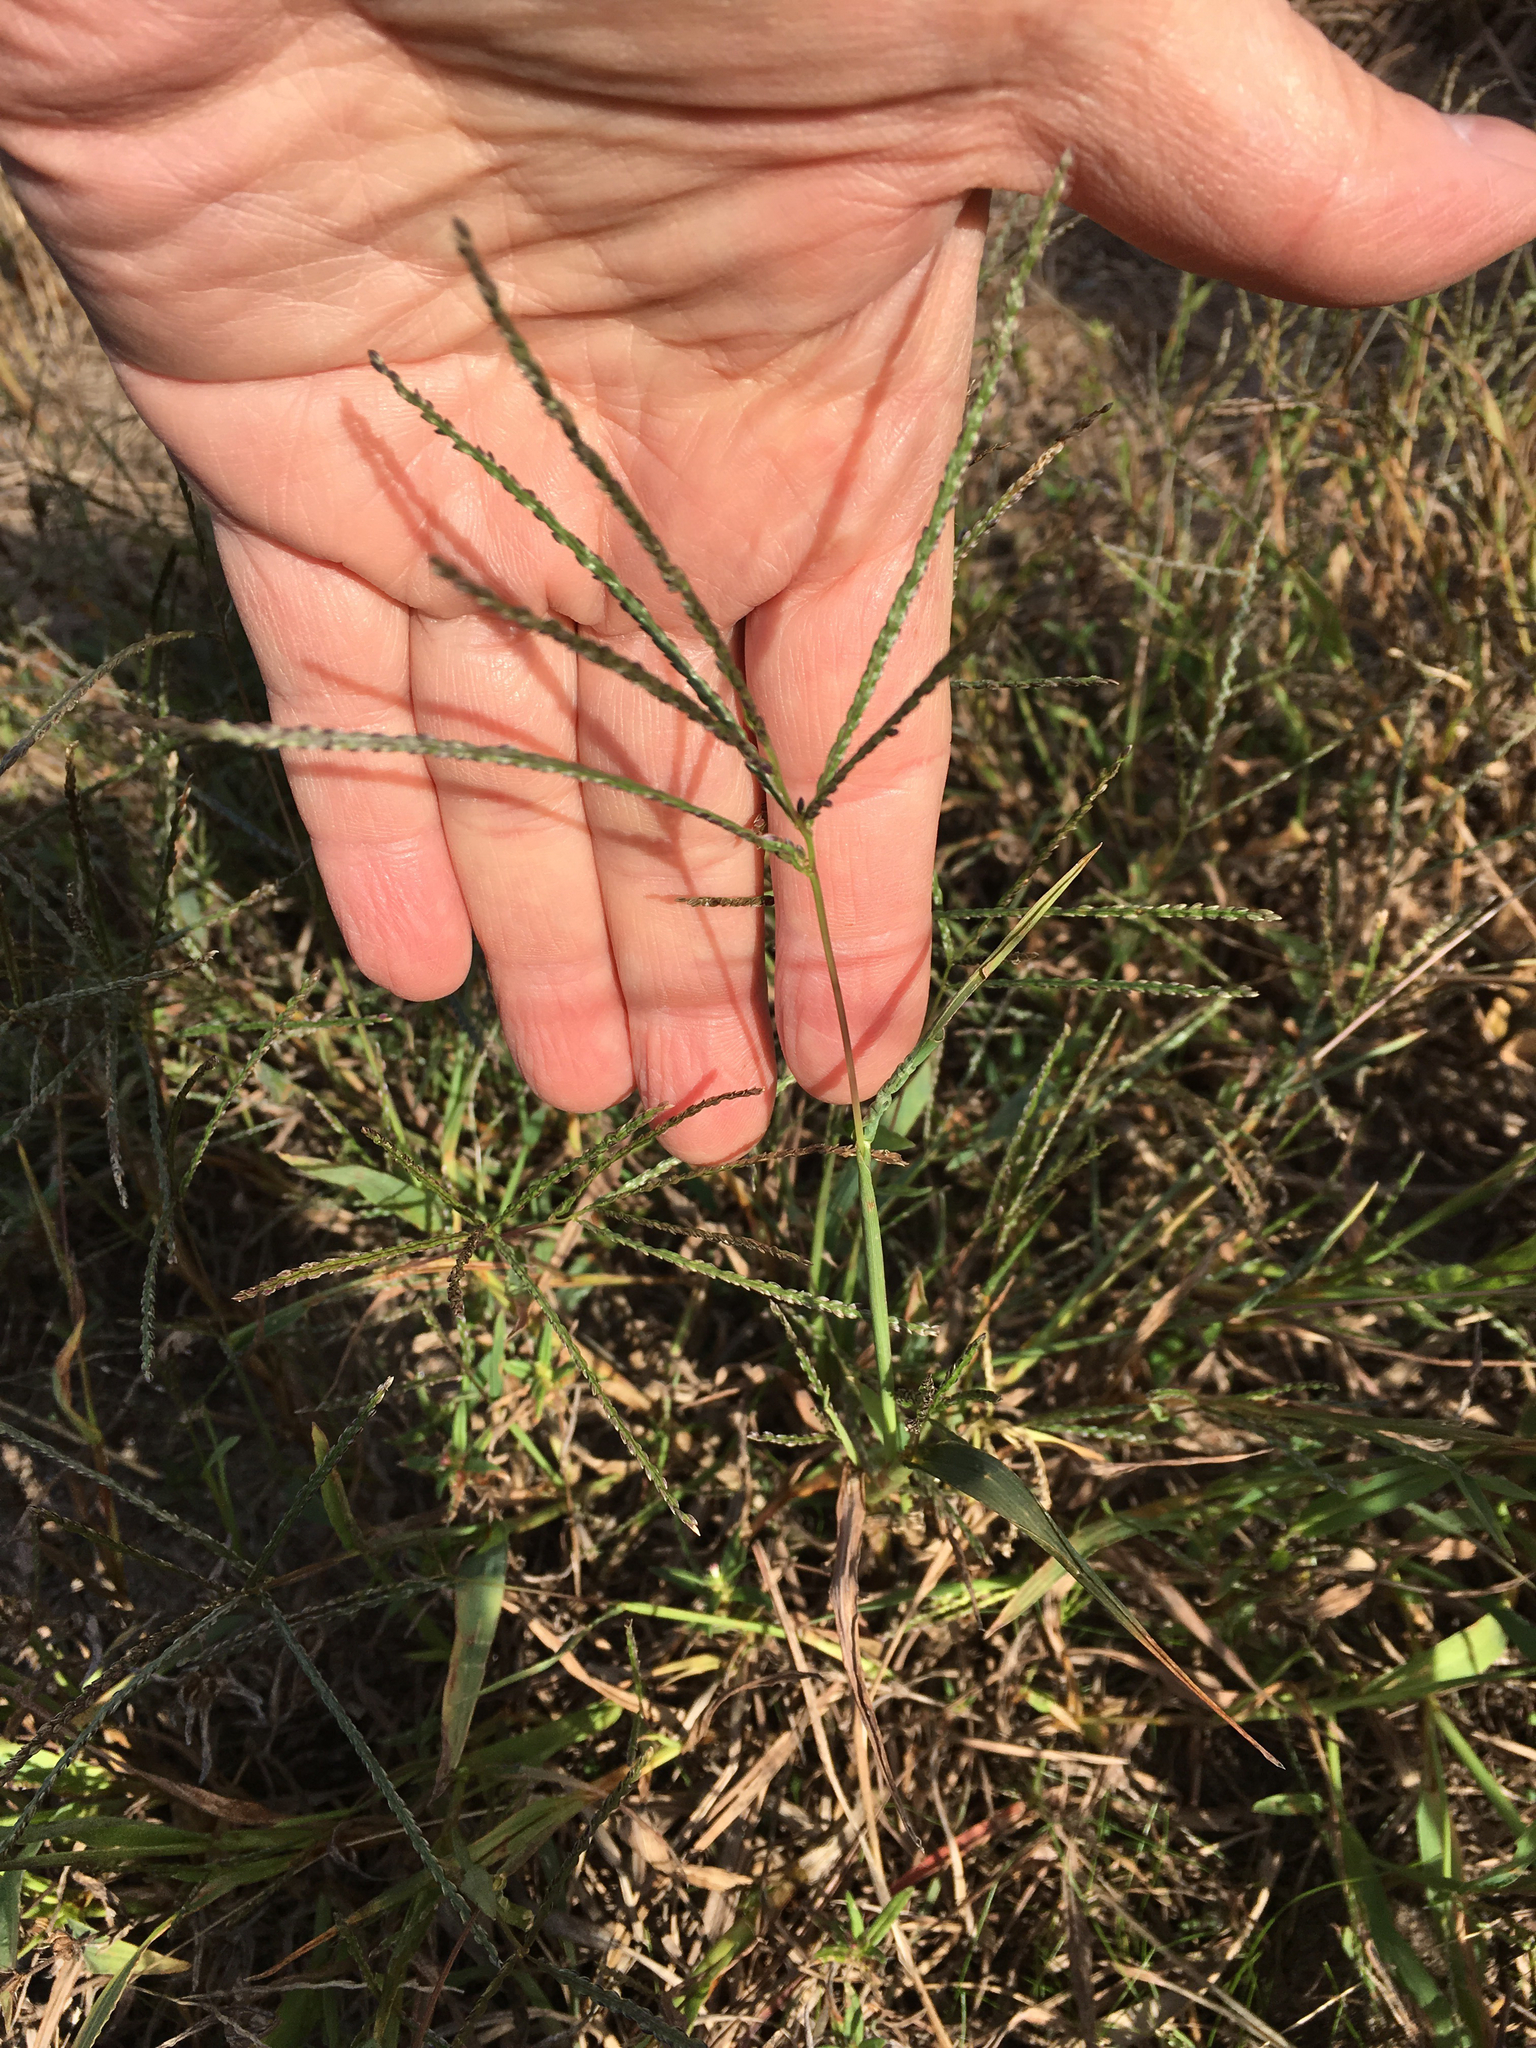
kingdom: Plantae
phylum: Tracheophyta
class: Liliopsida
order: Poales
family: Poaceae
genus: Digitaria
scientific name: Digitaria ischaemum
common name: Smooth crabgrass
